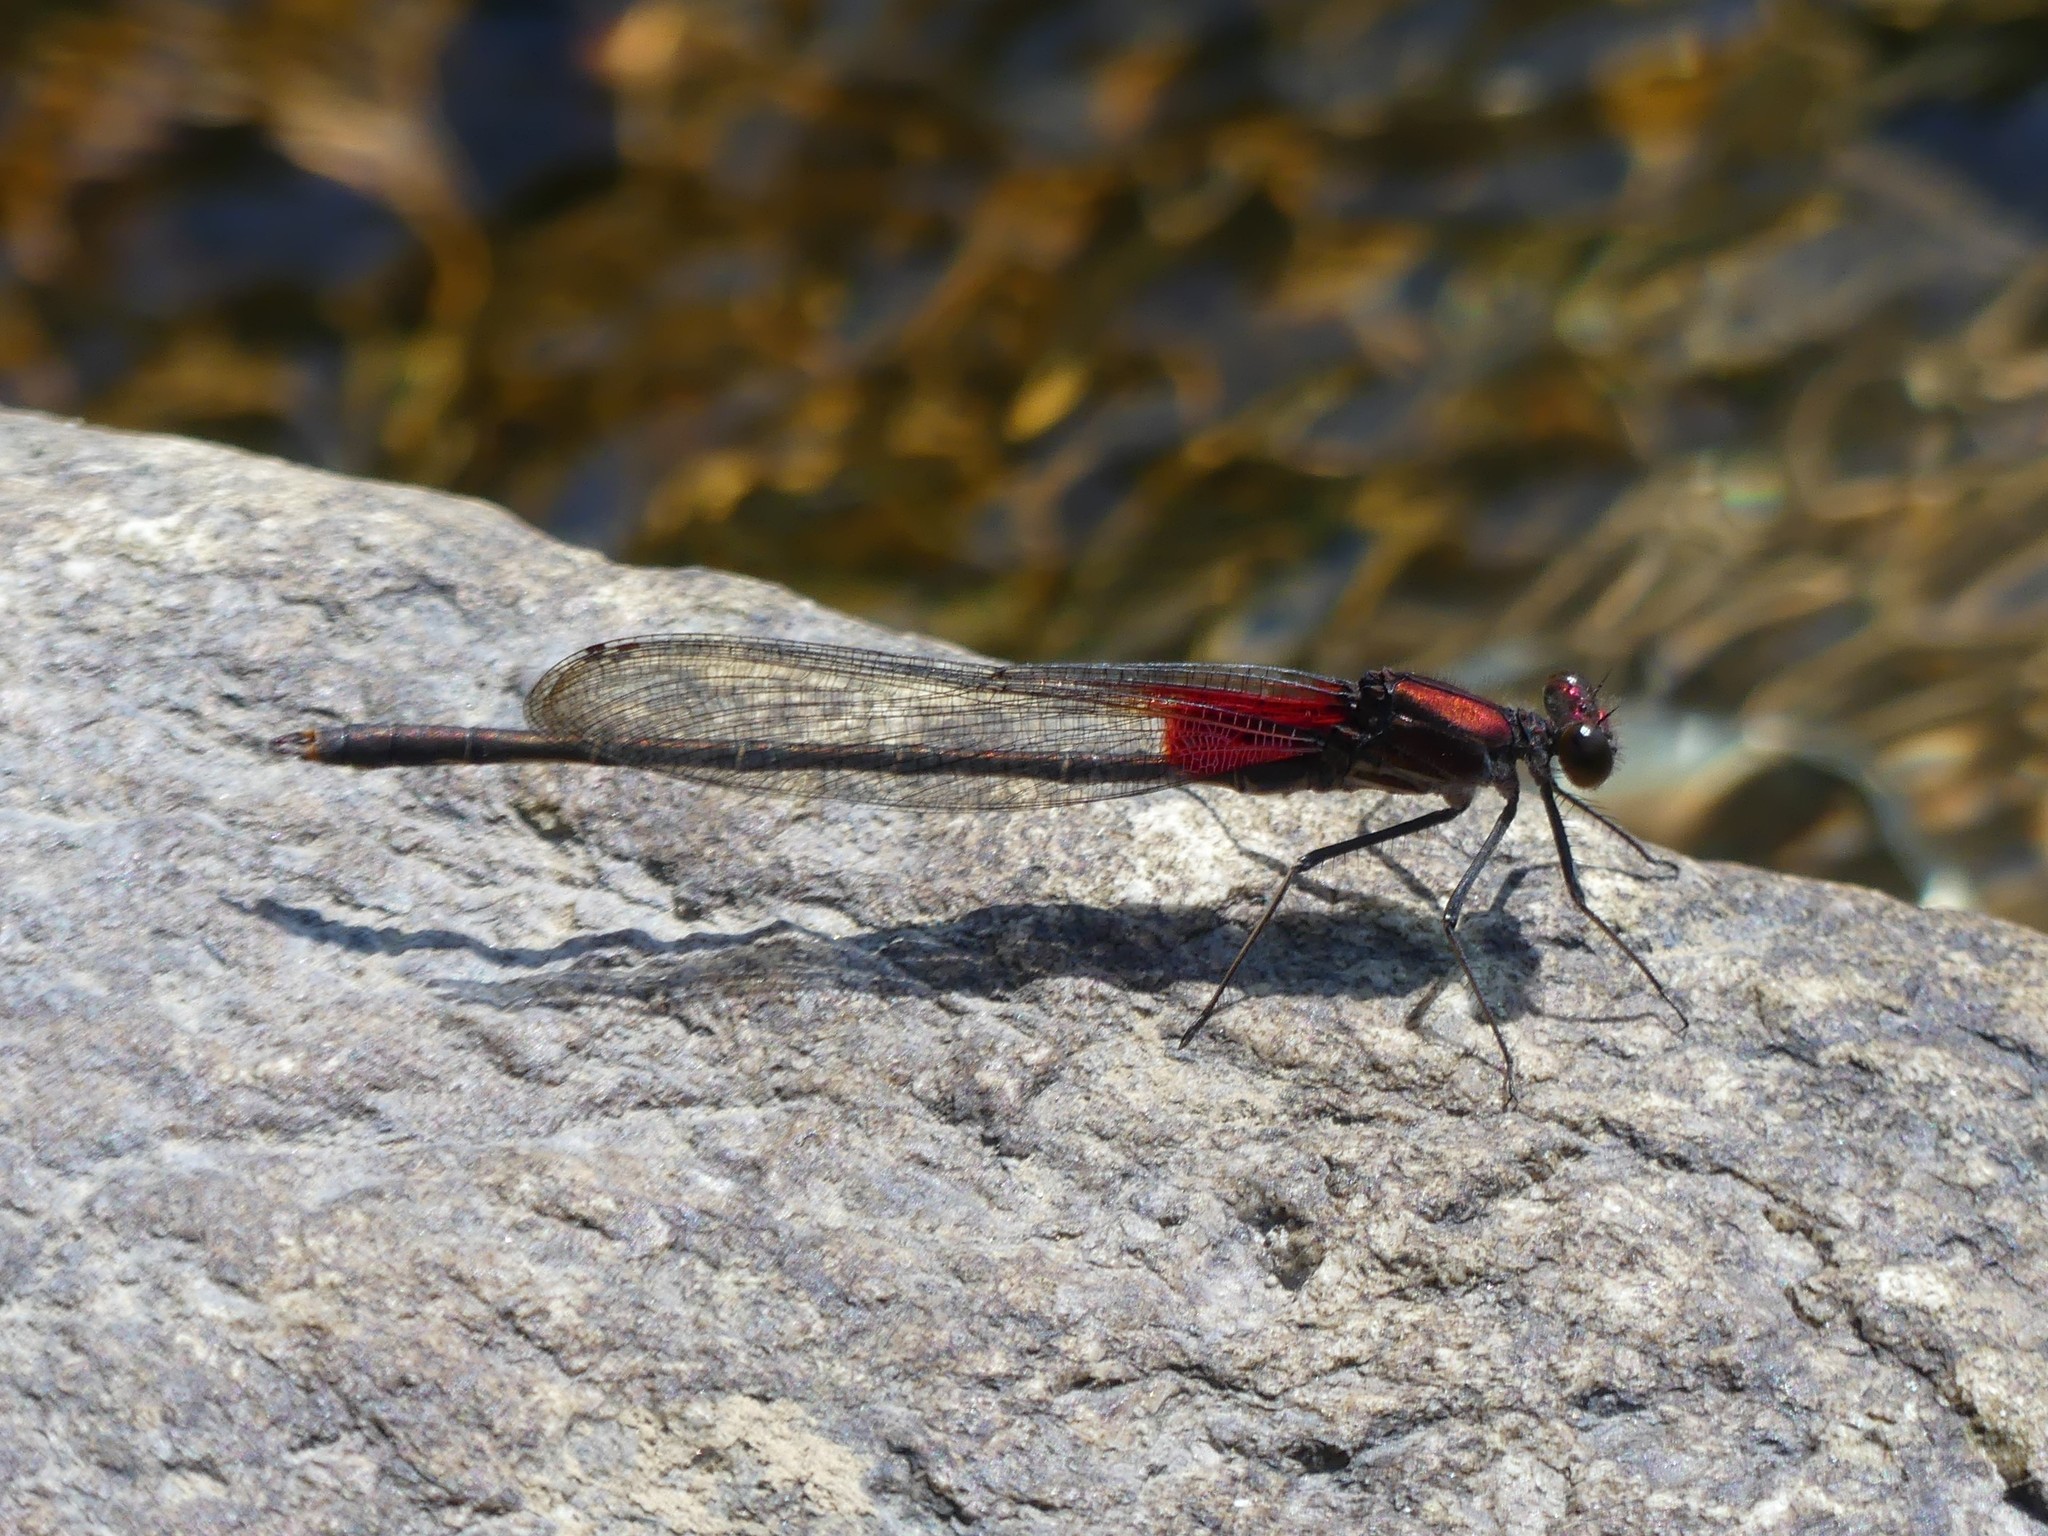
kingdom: Animalia
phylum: Arthropoda
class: Insecta
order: Odonata
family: Calopterygidae
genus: Hetaerina
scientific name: Hetaerina americana
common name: American rubyspot
